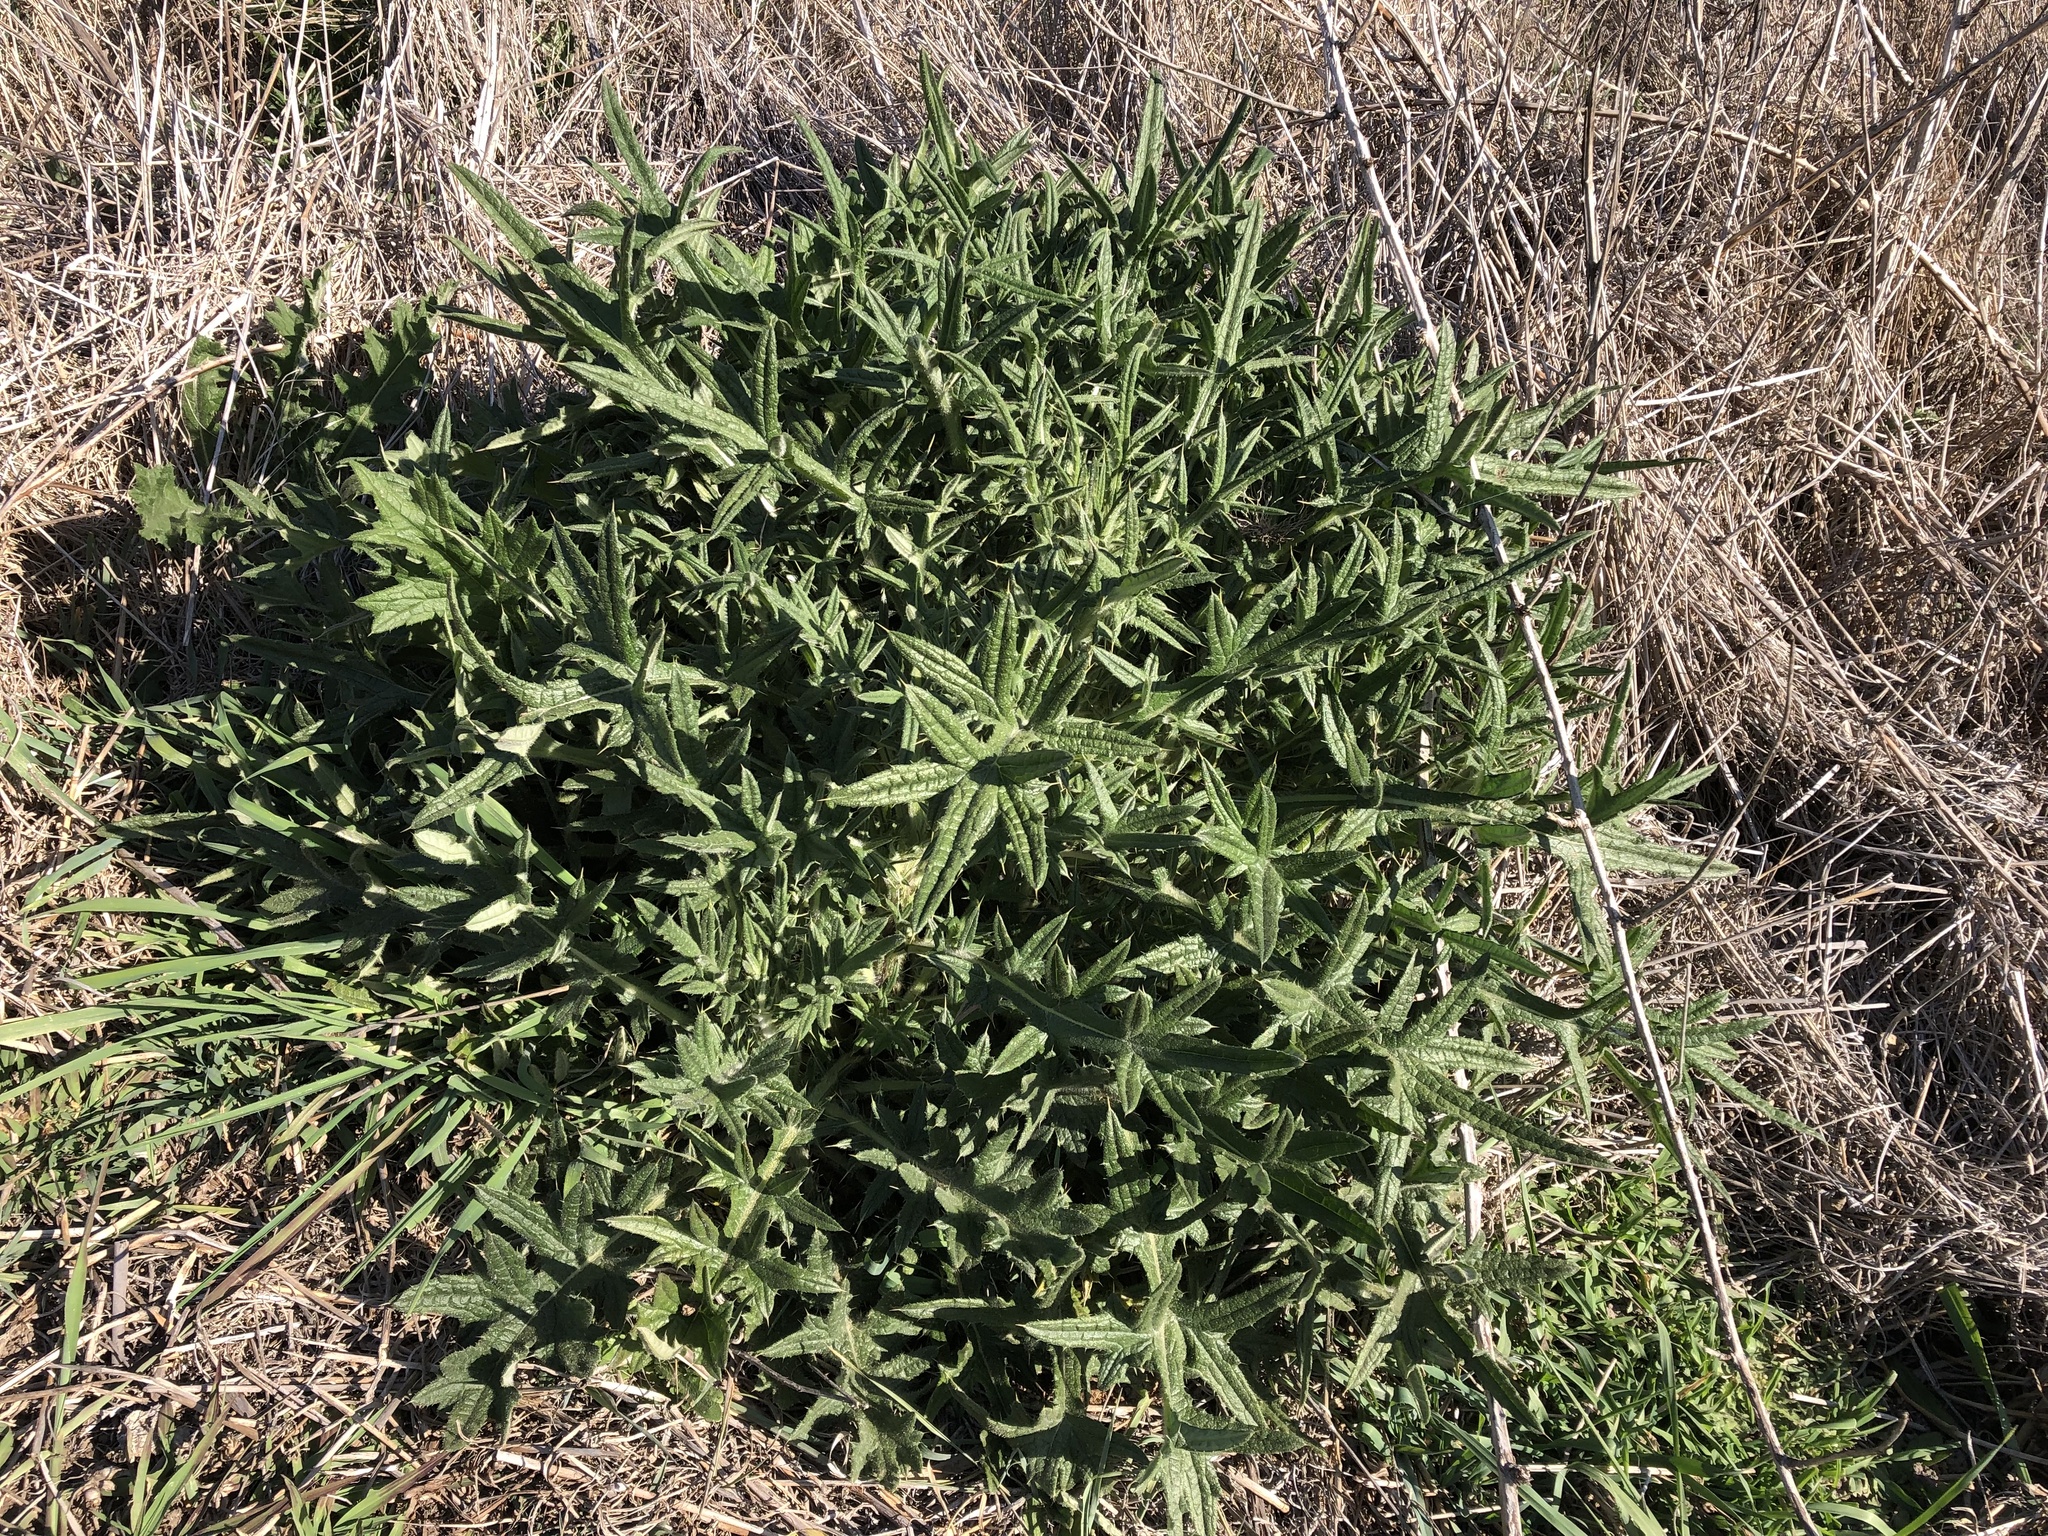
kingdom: Plantae
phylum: Tracheophyta
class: Magnoliopsida
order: Asterales
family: Asteraceae
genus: Cirsium
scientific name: Cirsium vulgare
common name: Bull thistle
